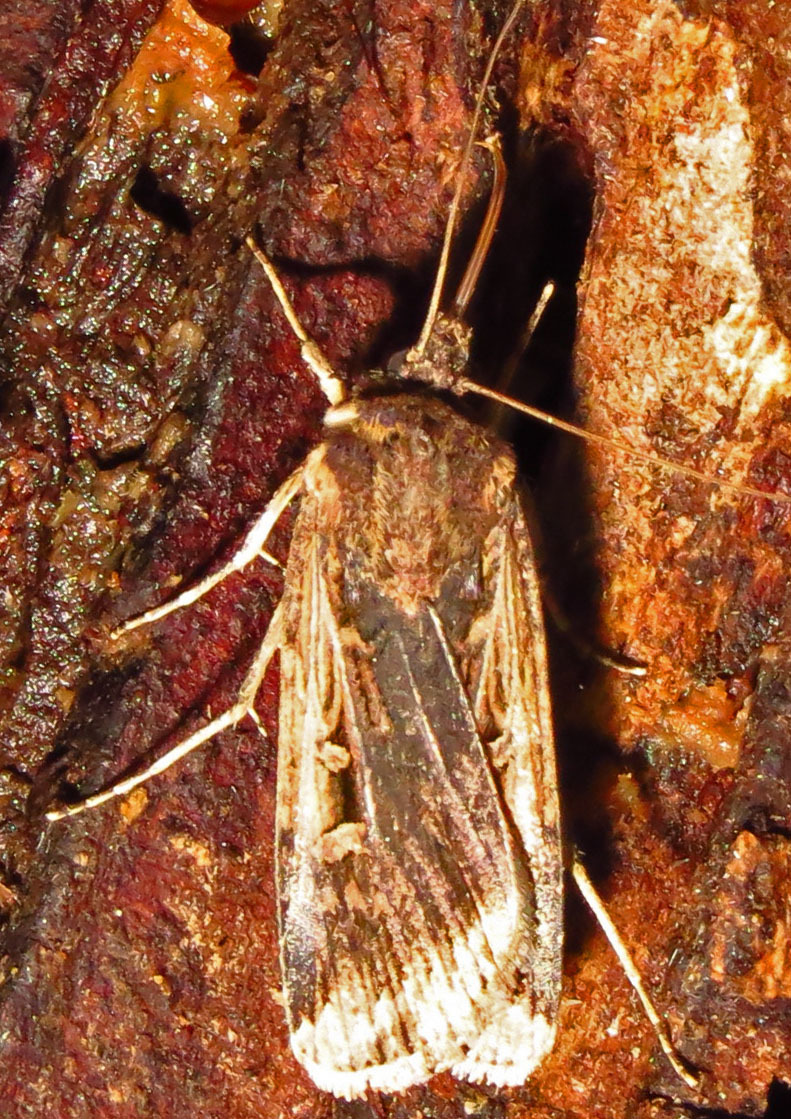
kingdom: Animalia
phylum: Arthropoda
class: Insecta
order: Lepidoptera
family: Noctuidae
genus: Feltia
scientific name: Feltia subterranea
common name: Granulate cutworm
